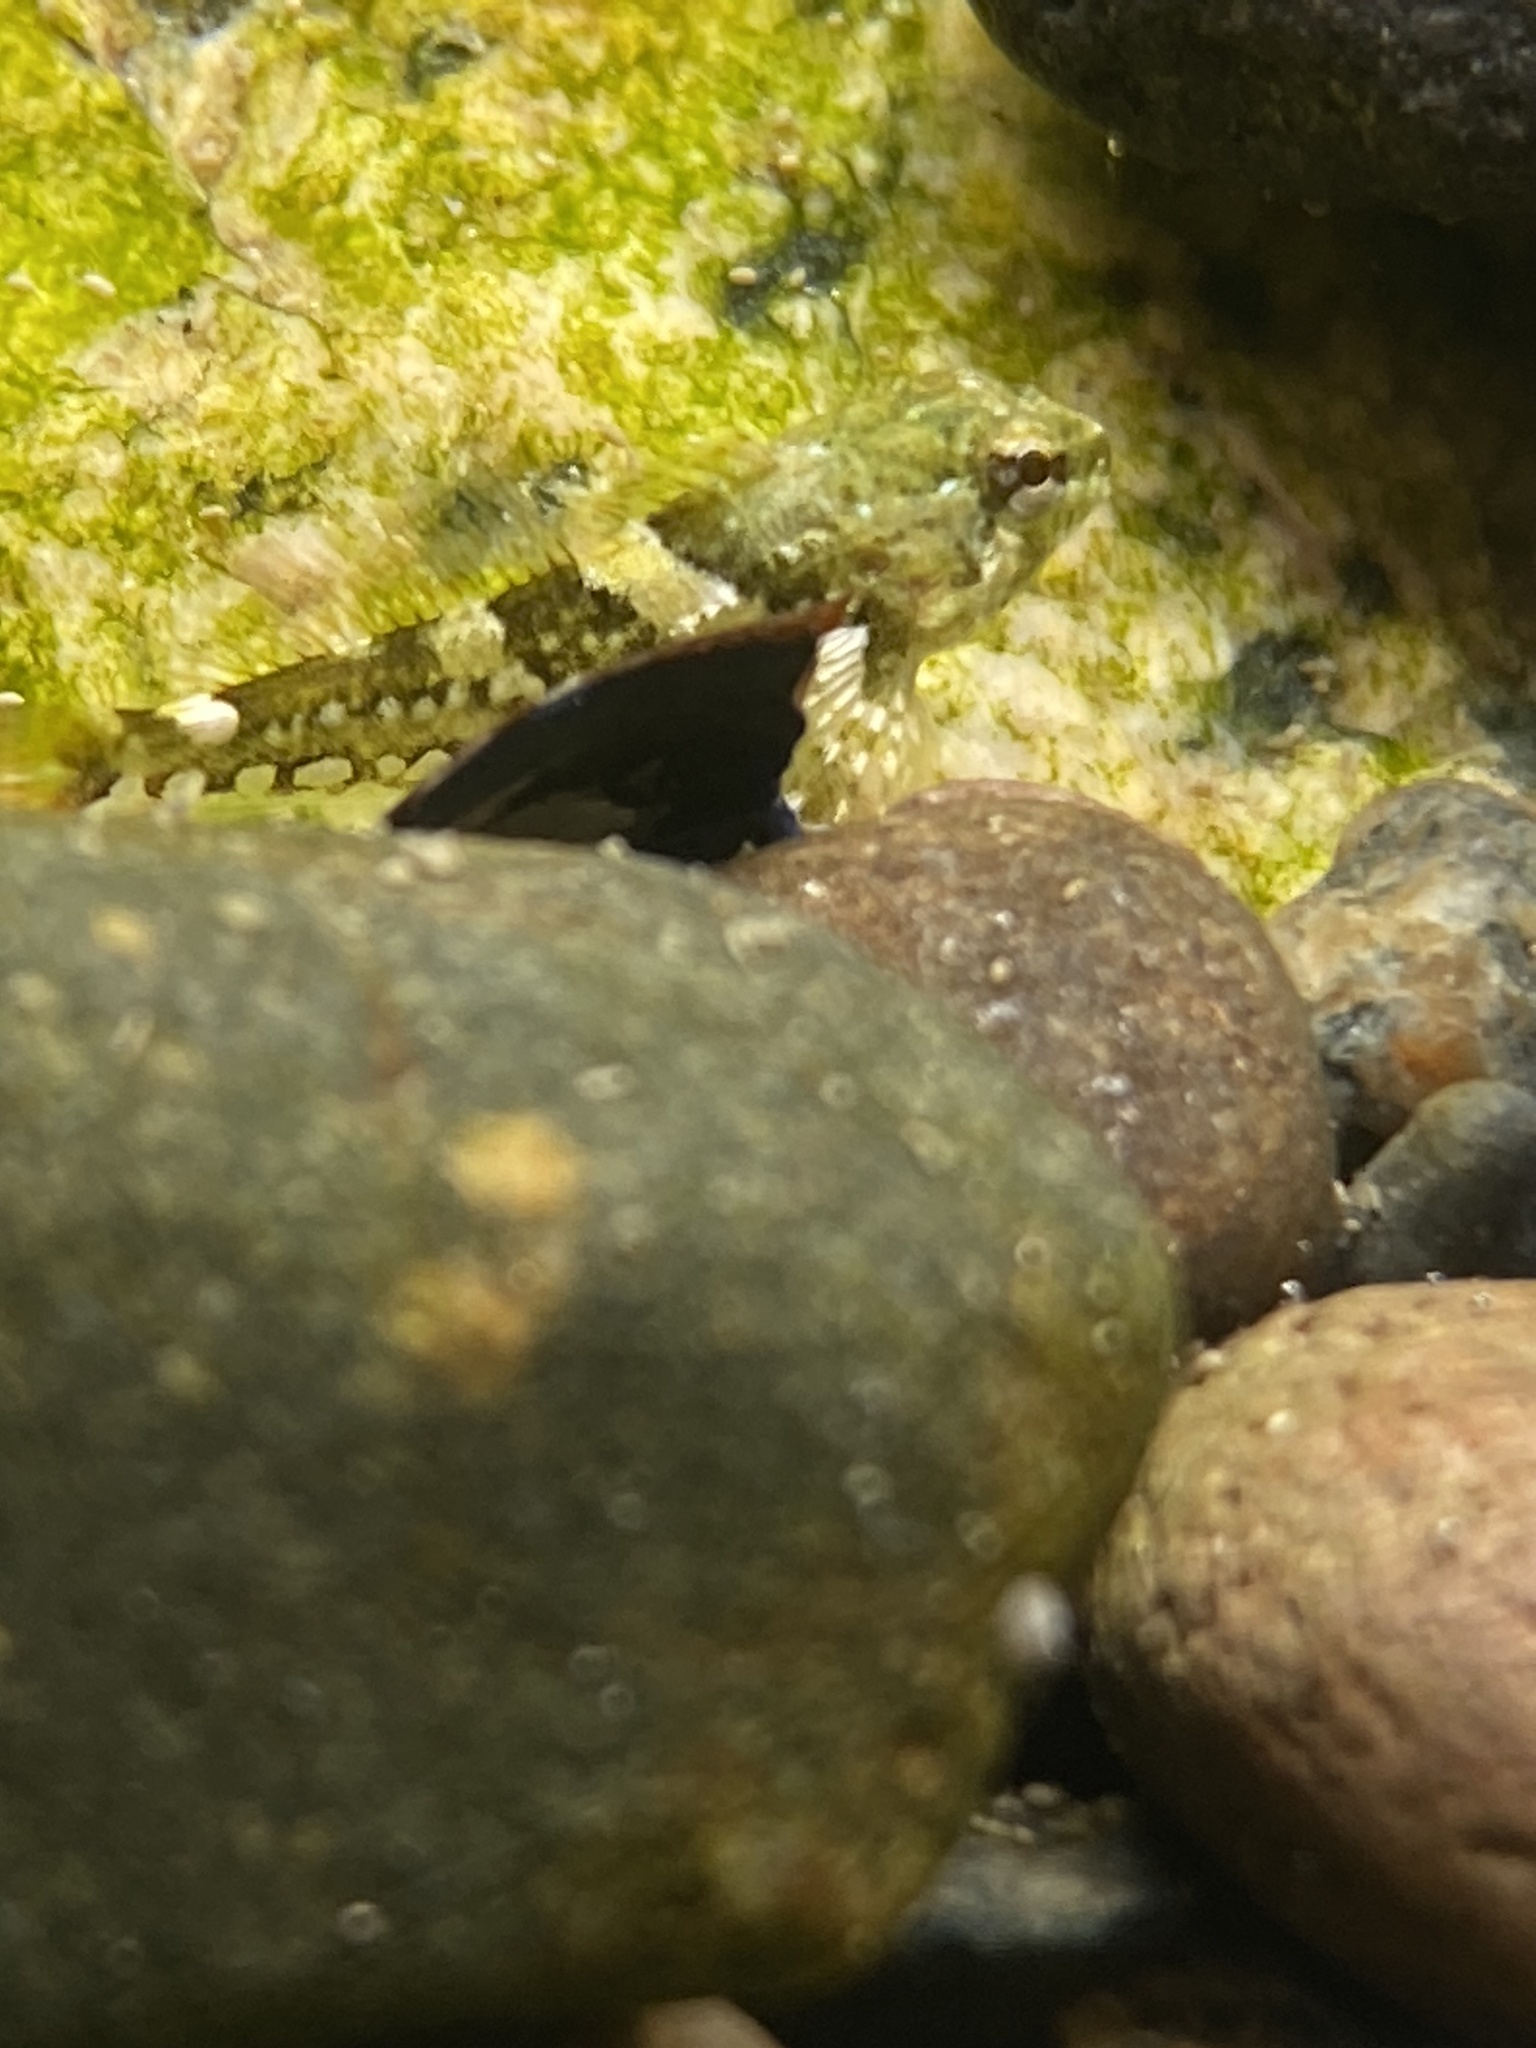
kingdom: Animalia
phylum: Chordata
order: Scorpaeniformes
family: Cottidae
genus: Oligocottus
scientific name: Oligocottus maculosus
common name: Tidepool sculpin
